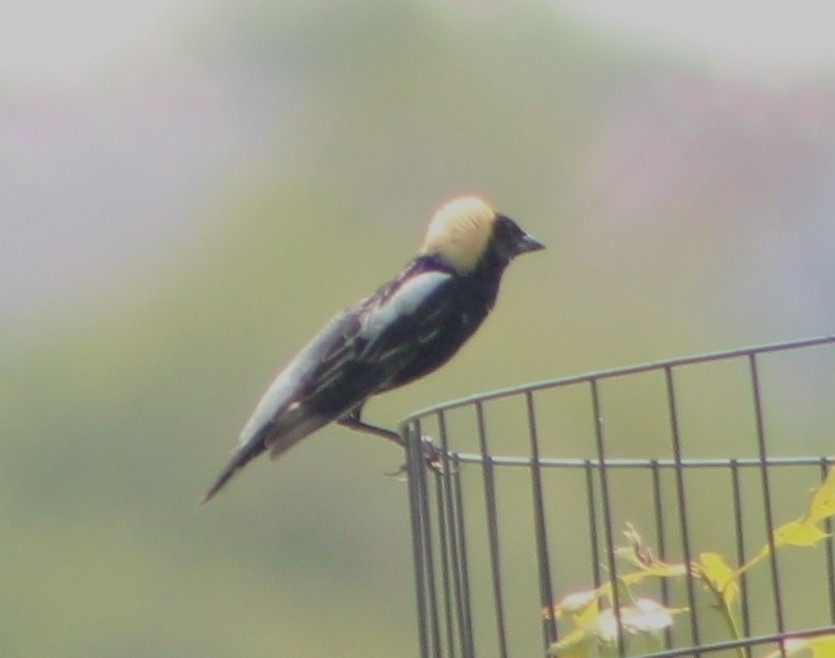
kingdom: Animalia
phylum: Chordata
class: Aves
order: Passeriformes
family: Icteridae
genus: Dolichonyx
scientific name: Dolichonyx oryzivorus
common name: Bobolink
